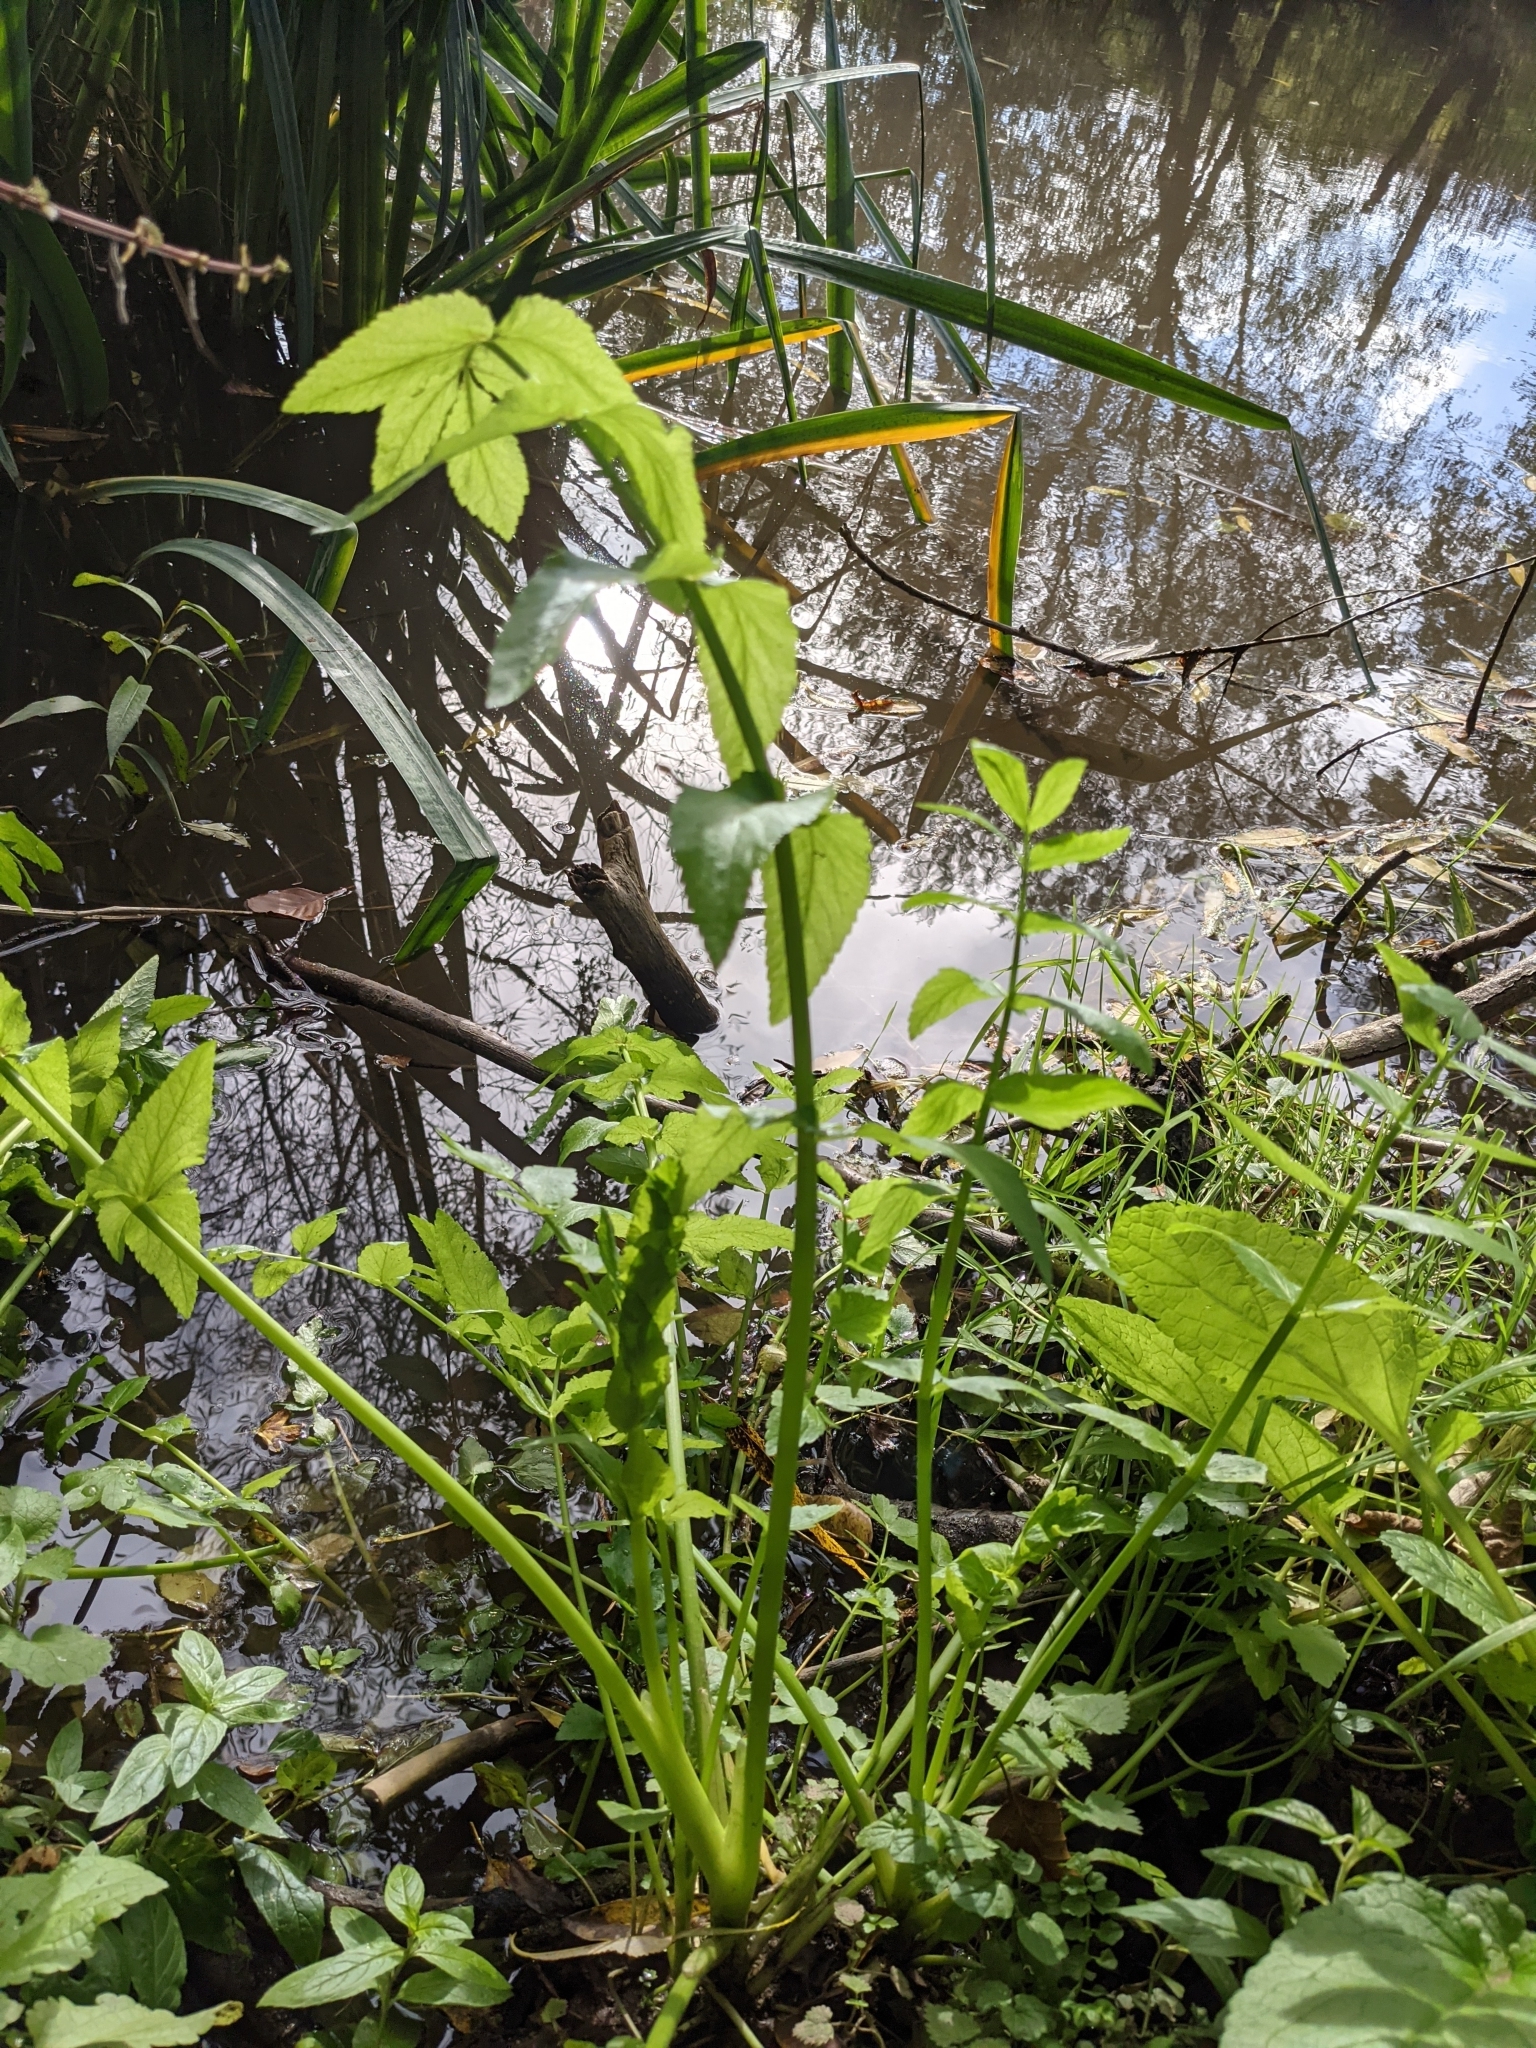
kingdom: Plantae
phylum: Tracheophyta
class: Magnoliopsida
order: Apiales
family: Apiaceae
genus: Helosciadium
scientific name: Helosciadium nodiflorum
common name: Fool's-watercress
